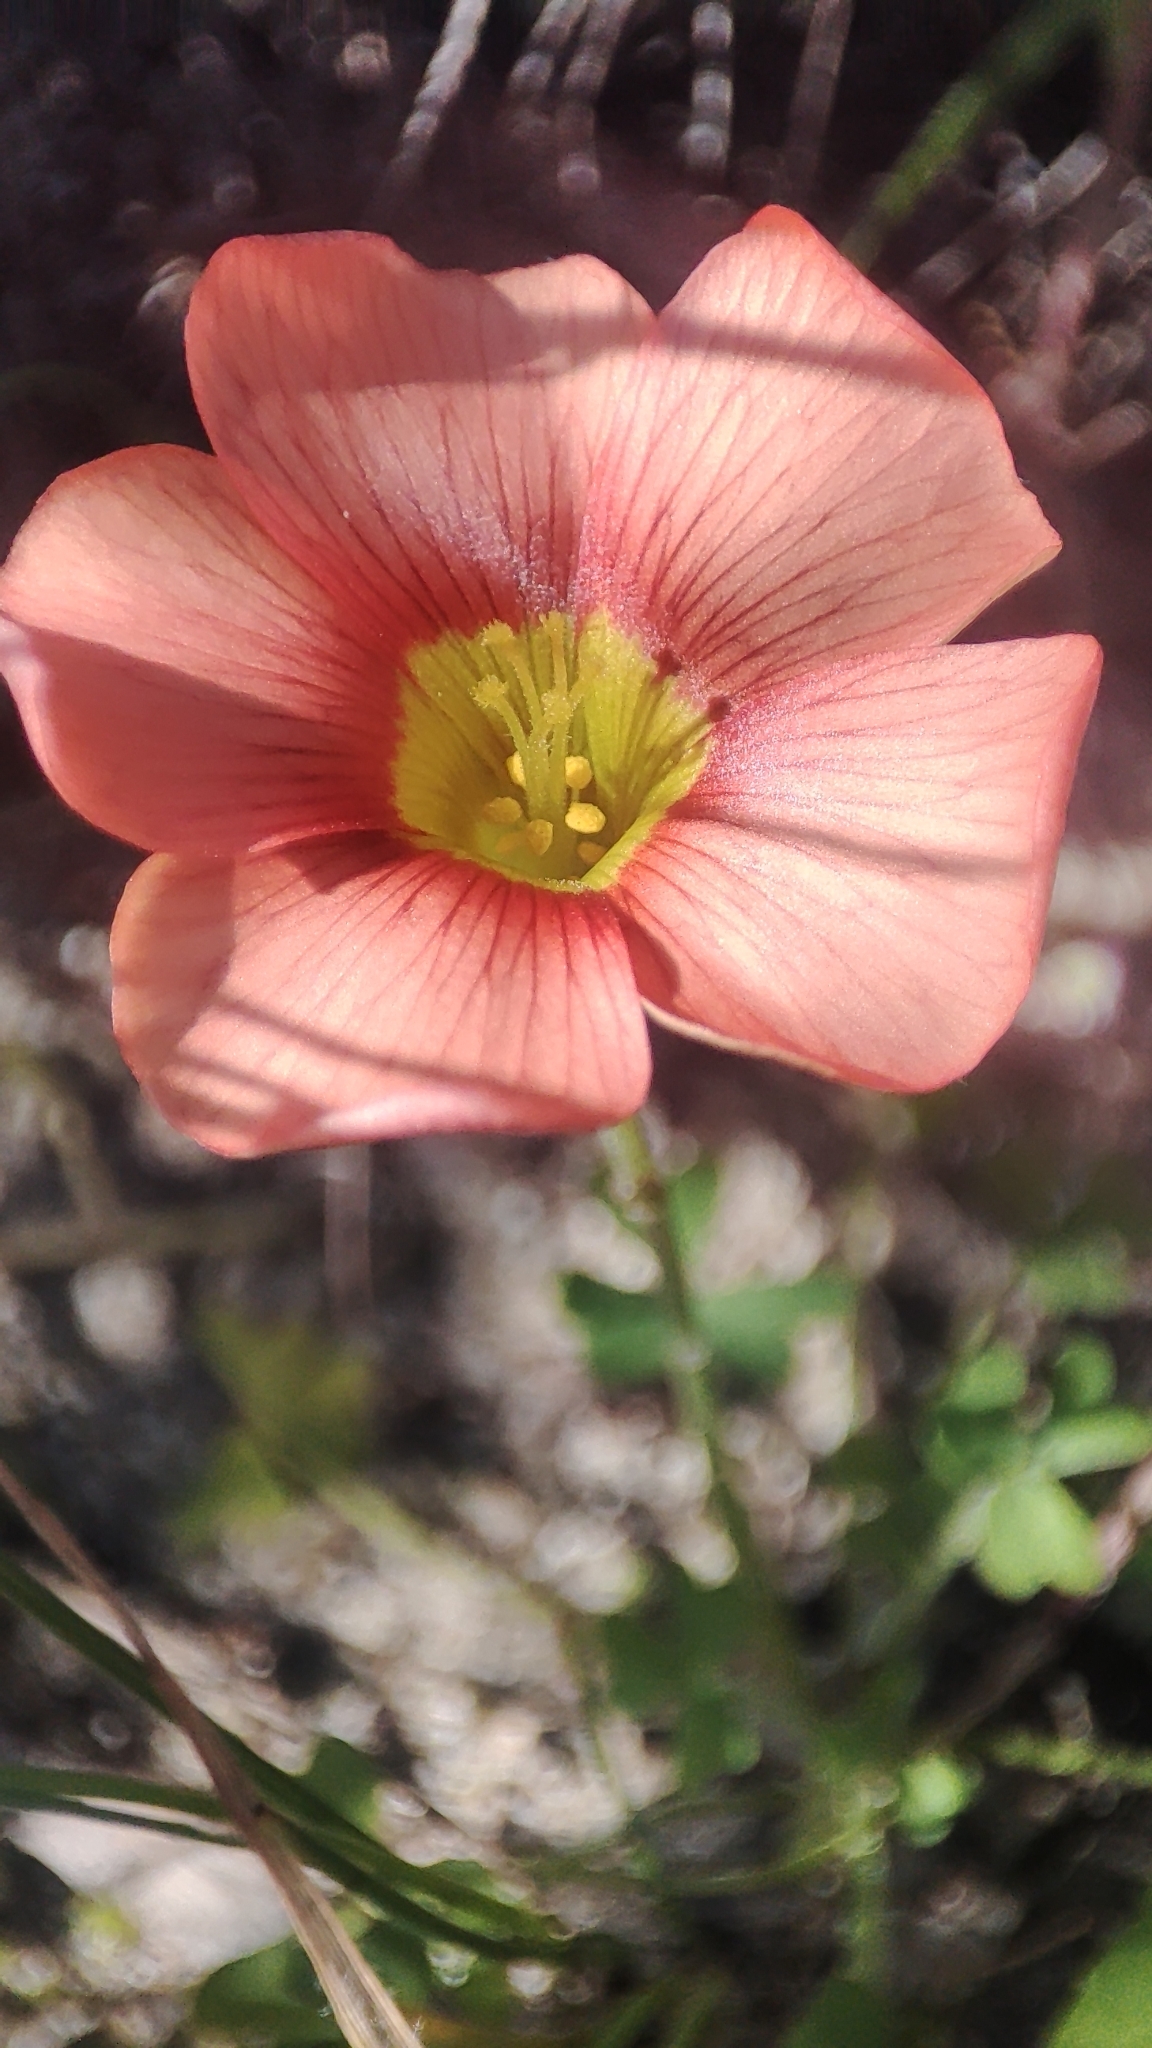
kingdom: Plantae
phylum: Tracheophyta
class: Magnoliopsida
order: Oxalidales
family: Oxalidaceae
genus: Oxalis
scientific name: Oxalis obtusa
